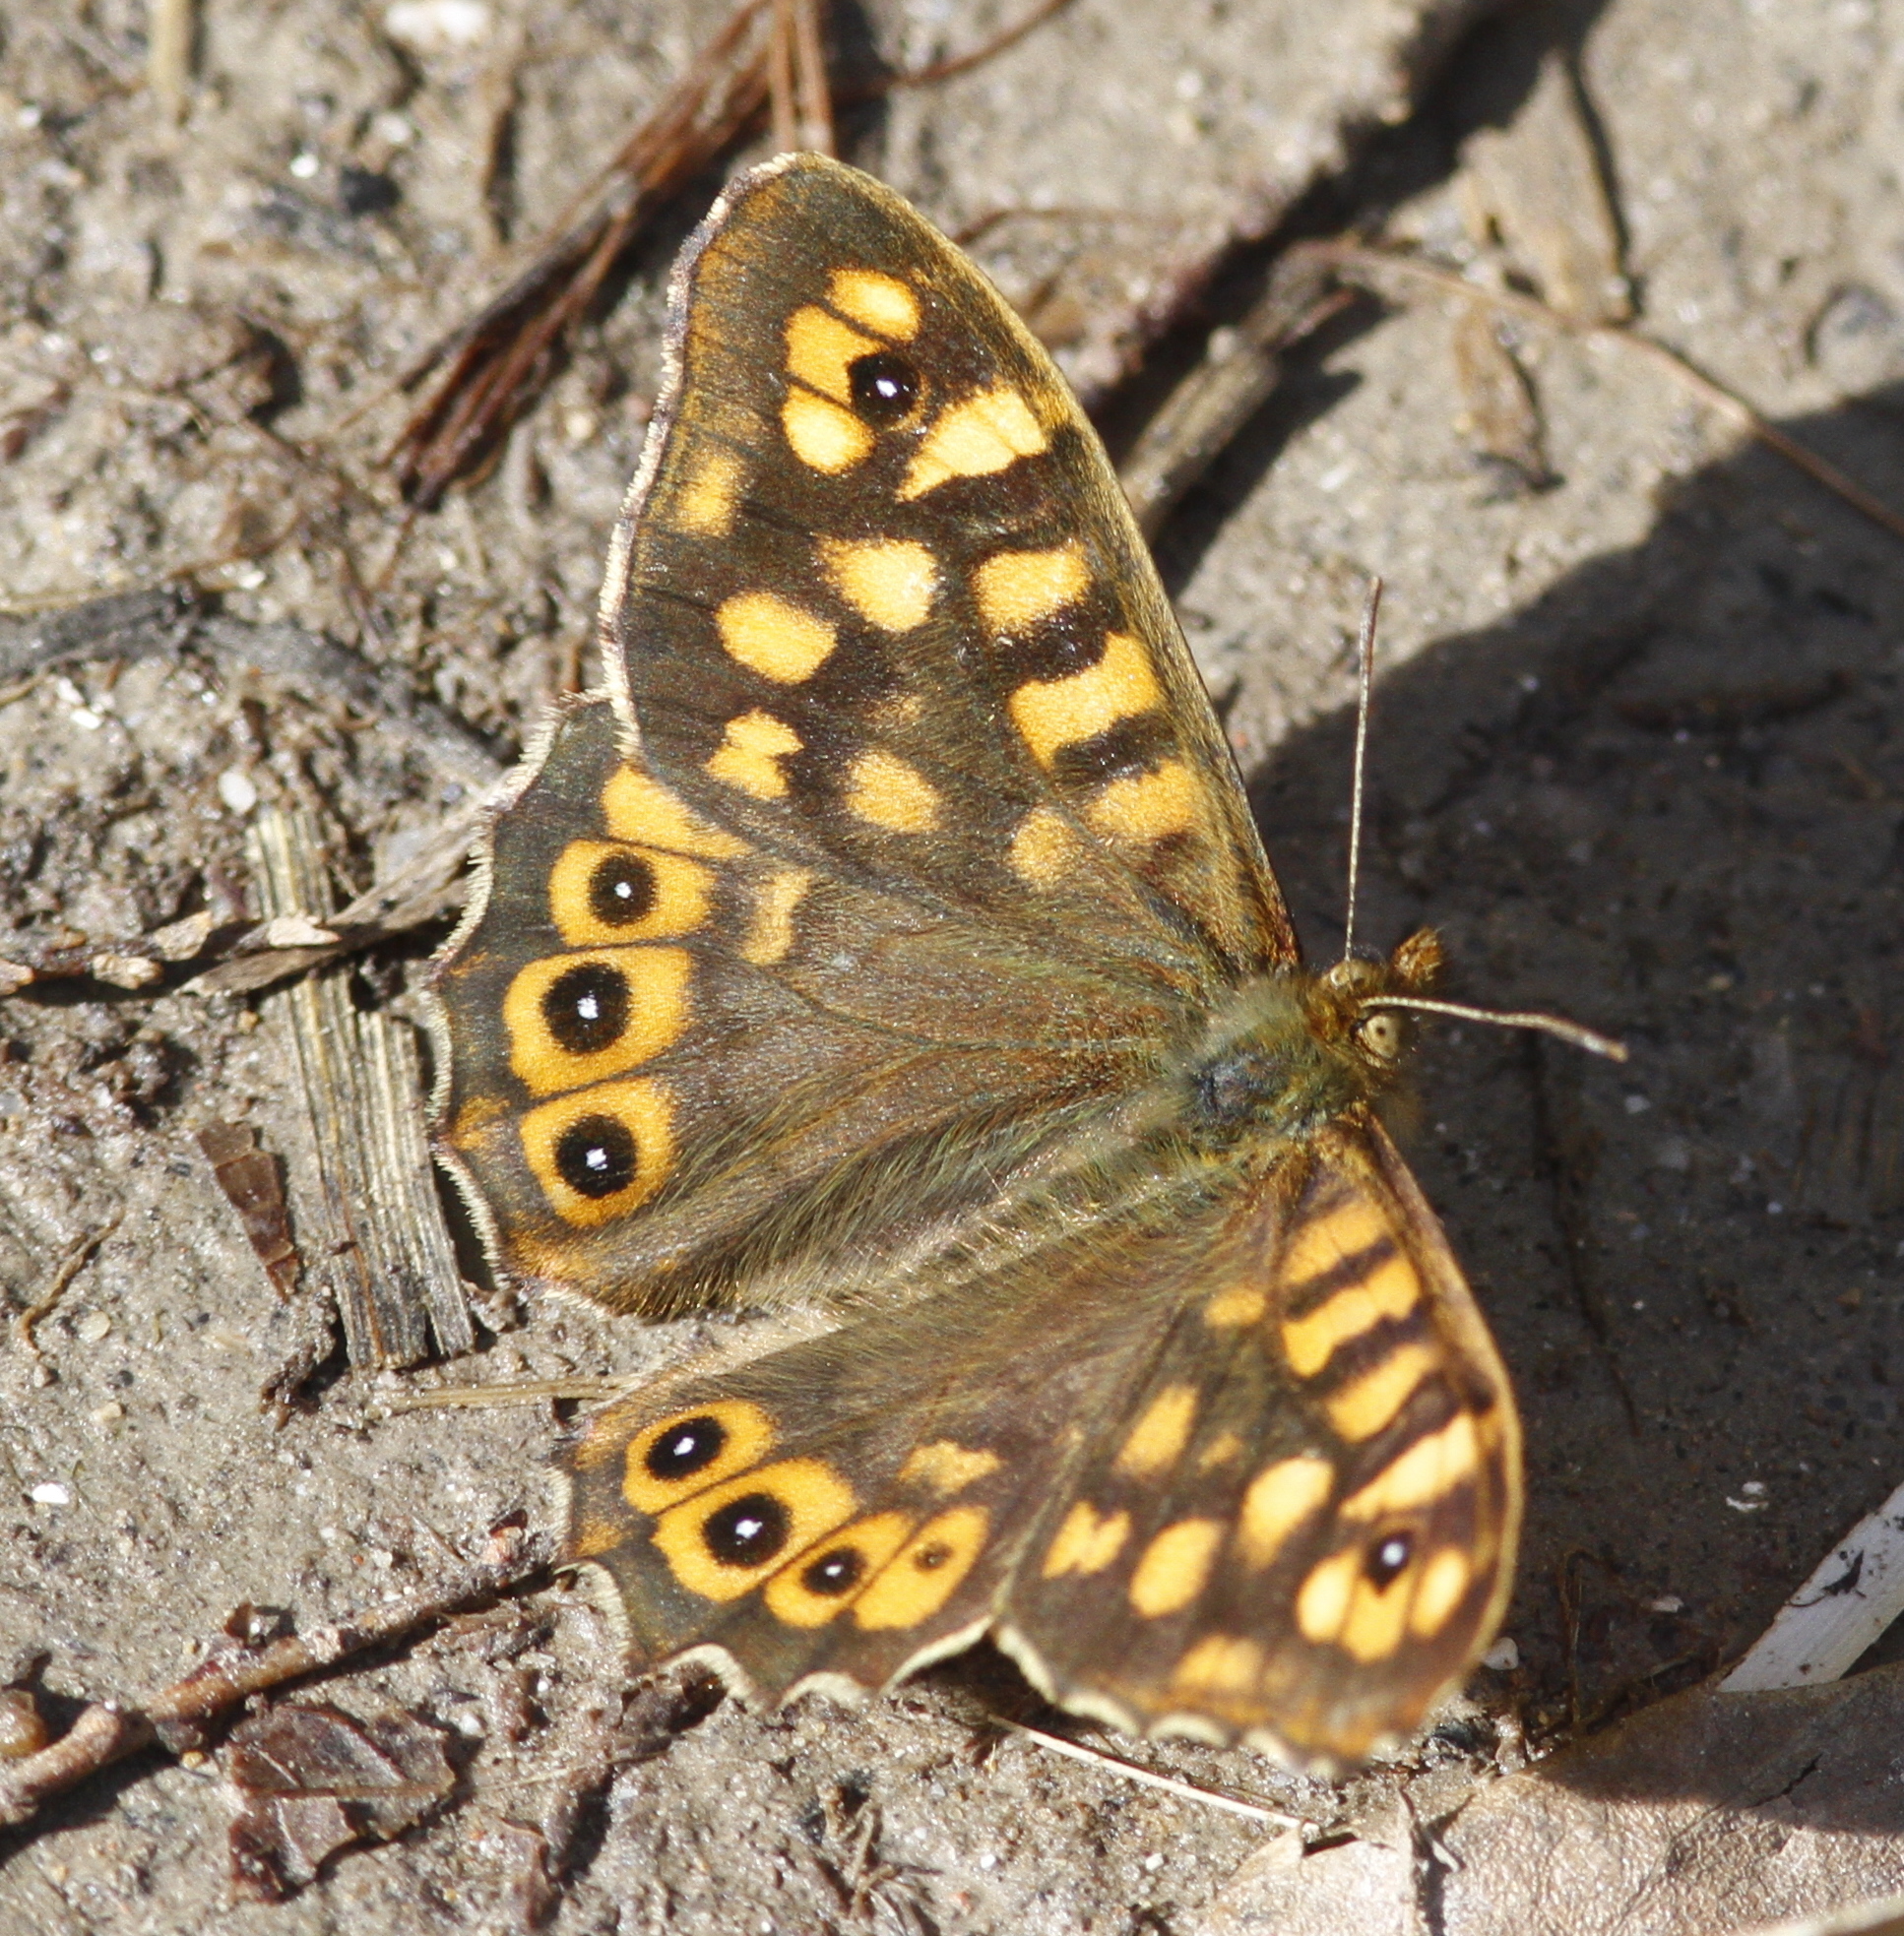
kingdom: Animalia
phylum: Arthropoda
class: Insecta
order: Lepidoptera
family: Nymphalidae
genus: Pararge
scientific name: Pararge aegeria
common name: Speckled wood
